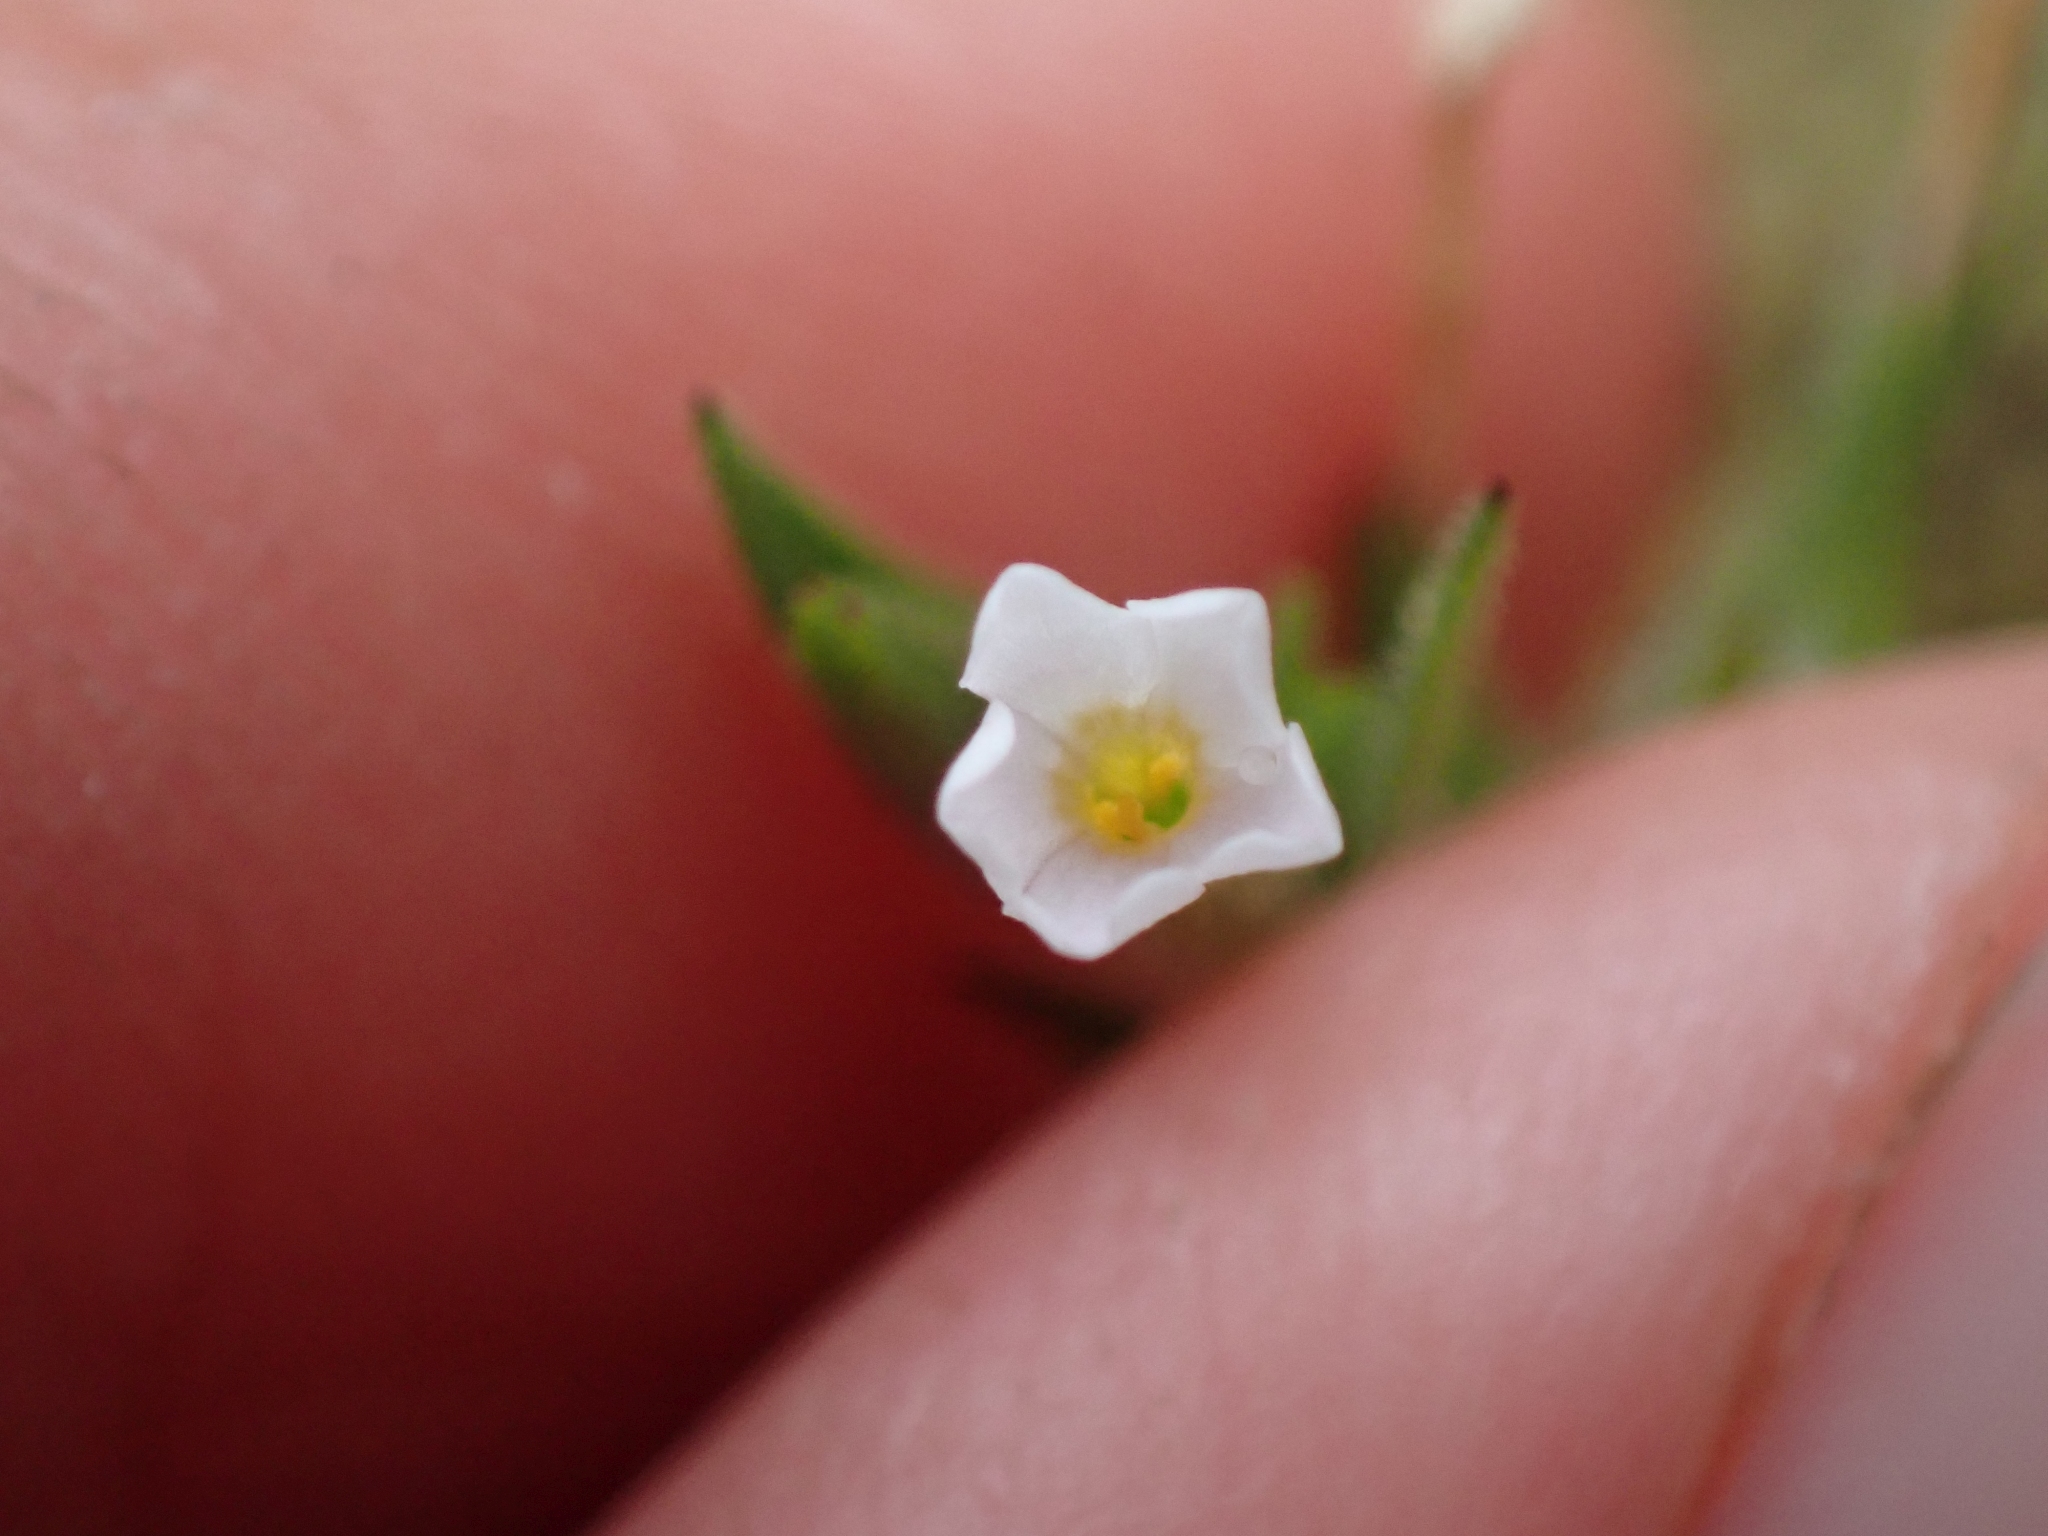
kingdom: Plantae
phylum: Tracheophyta
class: Magnoliopsida
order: Ericales
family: Polemoniaceae
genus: Phlox
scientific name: Phlox gracilis
